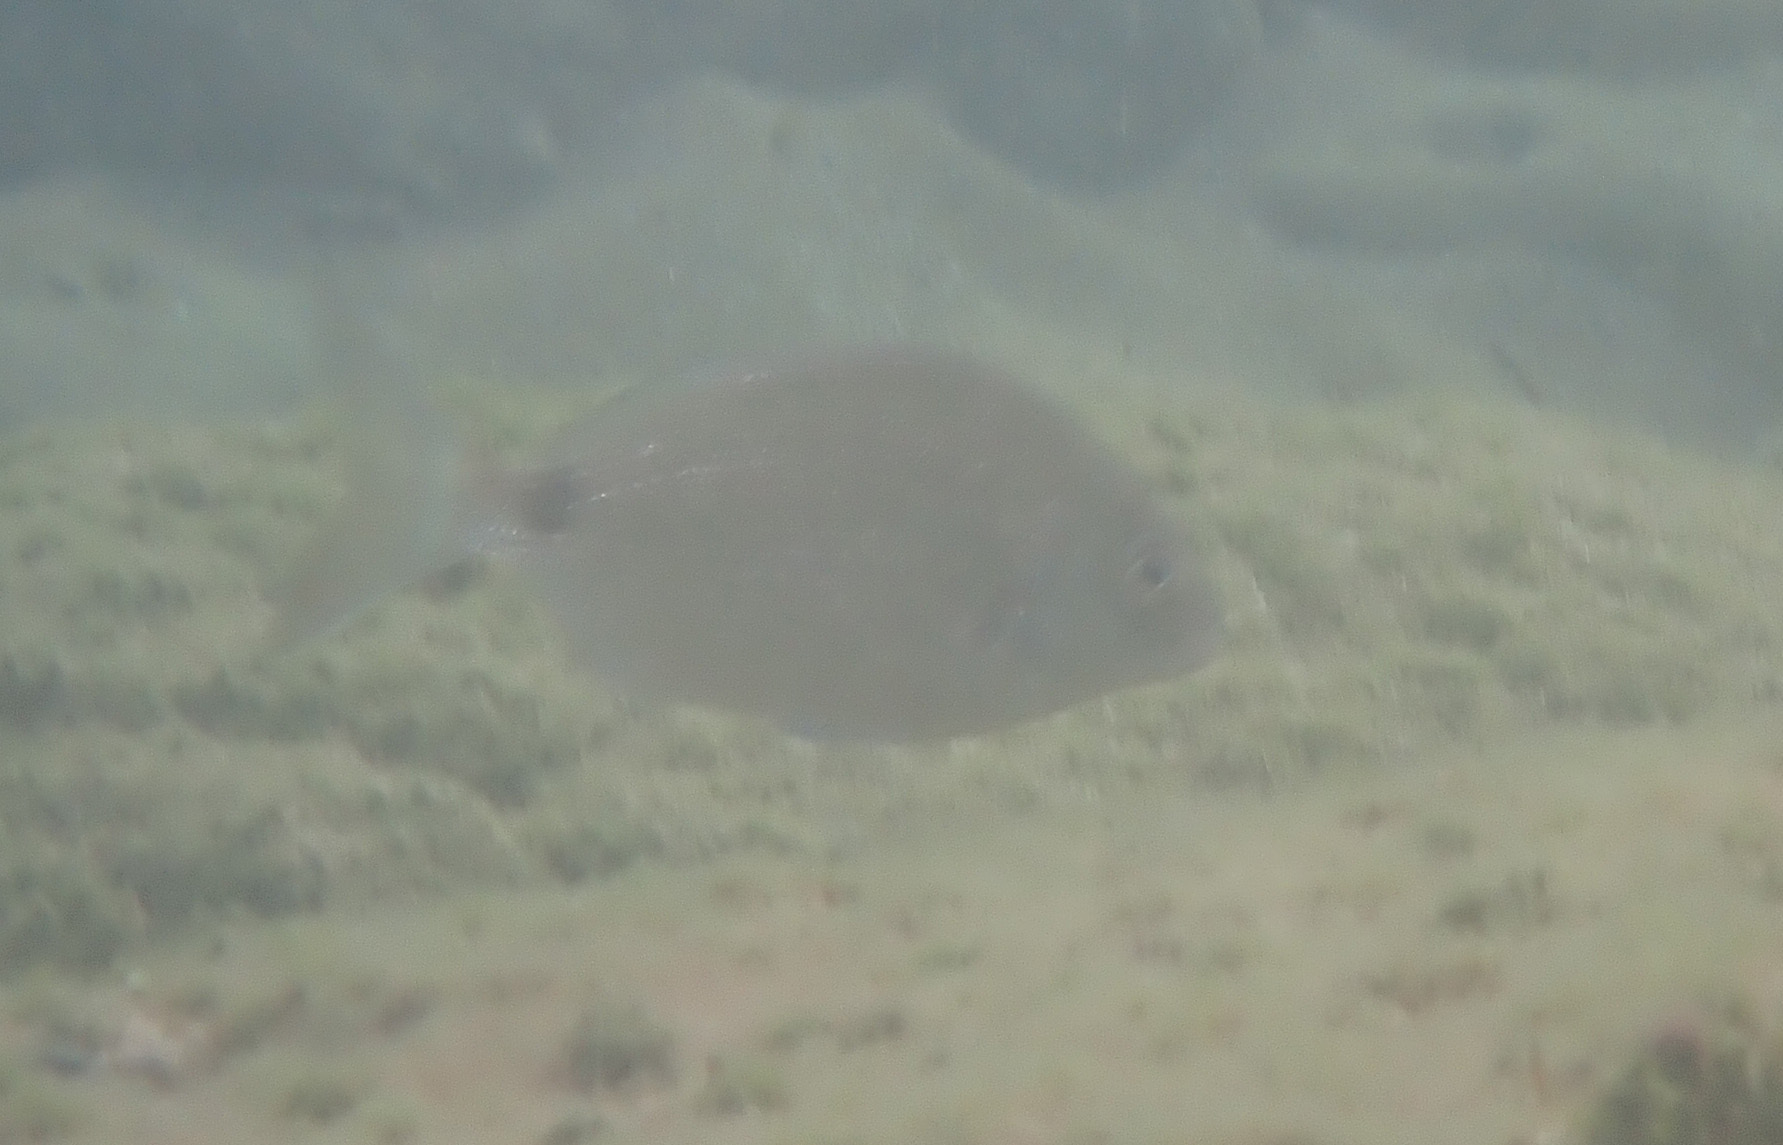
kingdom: Animalia
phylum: Chordata
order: Perciformes
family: Sparidae
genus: Diplodus
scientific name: Diplodus sargus
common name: White seabream
